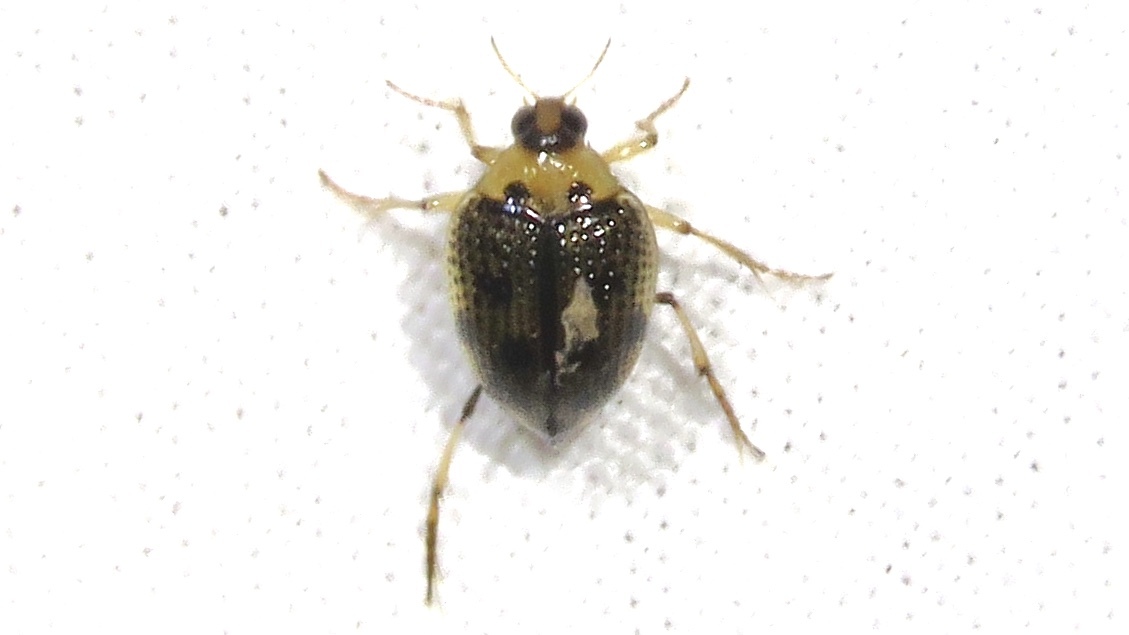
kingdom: Animalia
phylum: Arthropoda
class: Insecta
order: Coleoptera
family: Haliplidae
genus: Peltodytes
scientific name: Peltodytes edentulus
